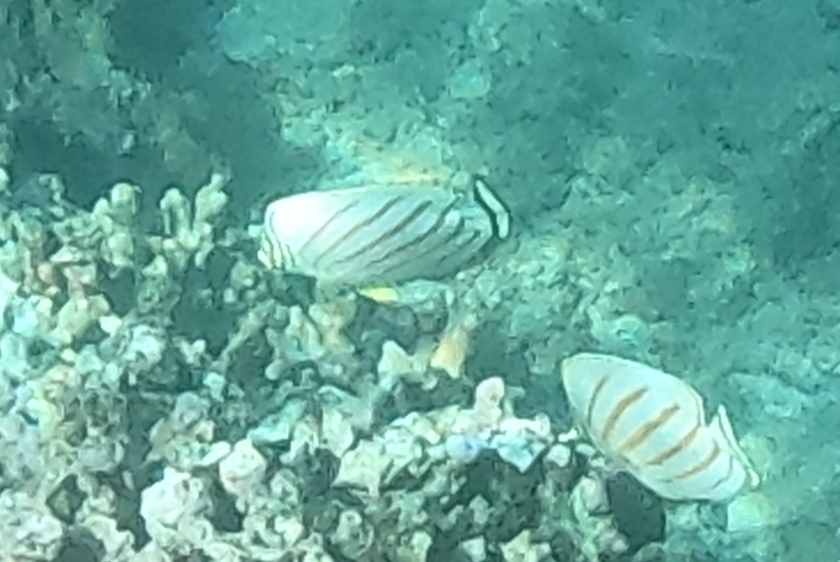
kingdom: Animalia
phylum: Chordata
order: Perciformes
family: Chaetodontidae
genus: Chaetodon
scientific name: Chaetodon ornatissimus
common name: Ornate butterflyfish
